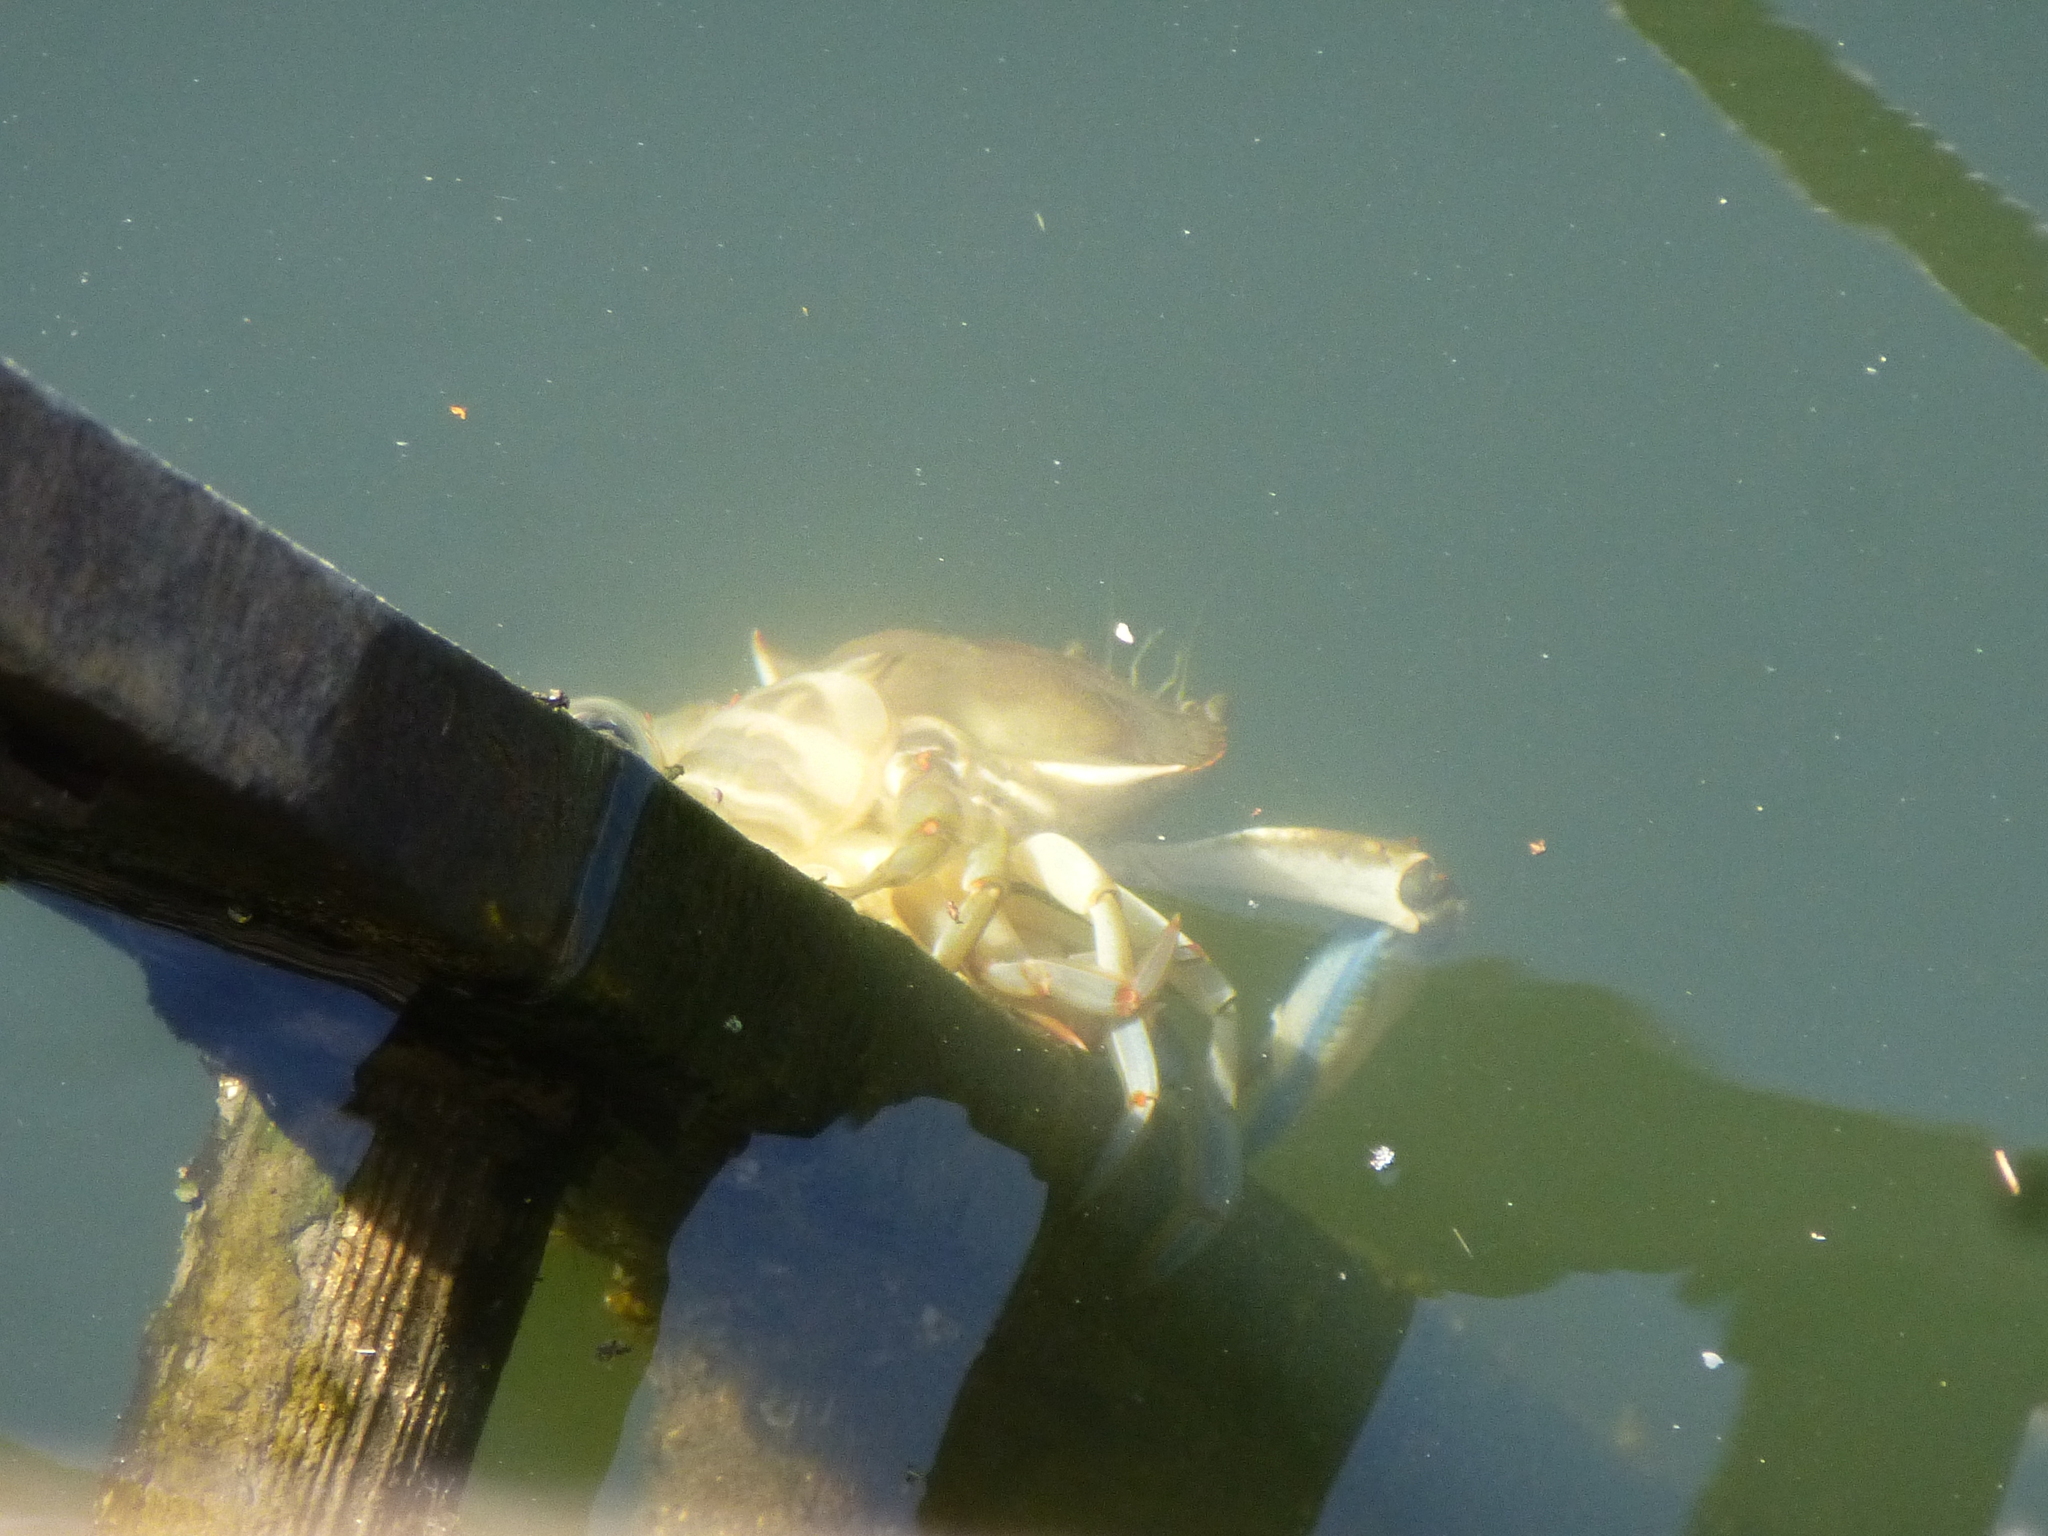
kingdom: Animalia
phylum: Arthropoda
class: Malacostraca
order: Decapoda
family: Portunidae
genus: Callinectes
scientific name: Callinectes sapidus
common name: Blue crab
